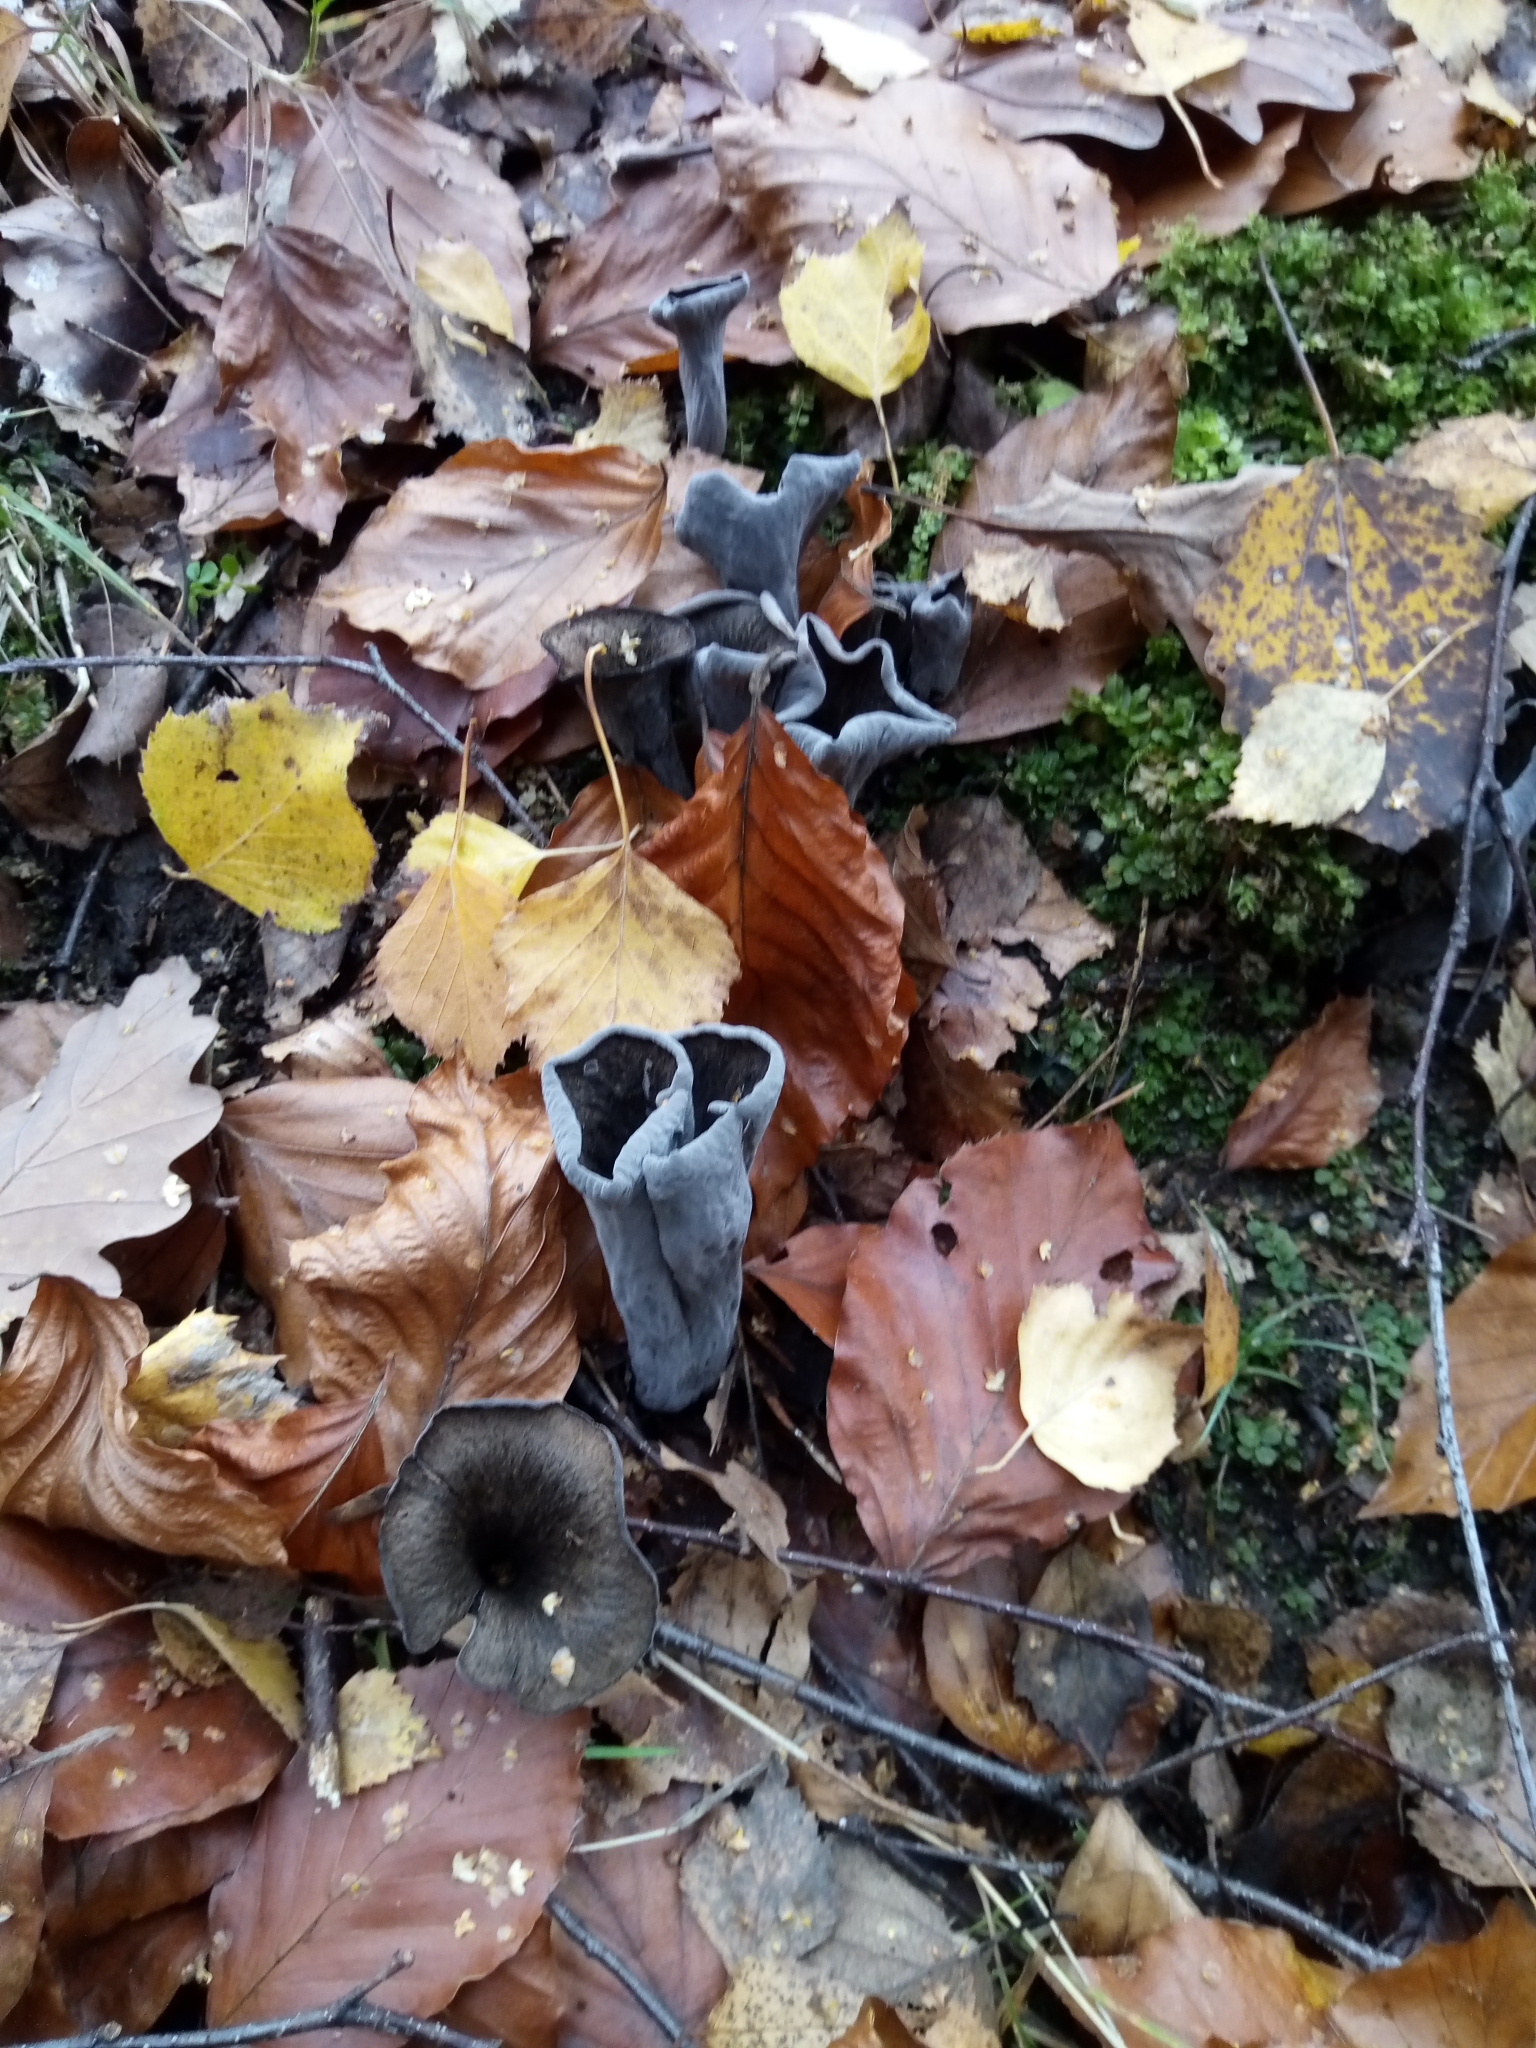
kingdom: Fungi
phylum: Basidiomycota
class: Agaricomycetes
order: Cantharellales
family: Hydnaceae
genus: Craterellus
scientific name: Craterellus cornucopioides
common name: Horn of plenty
